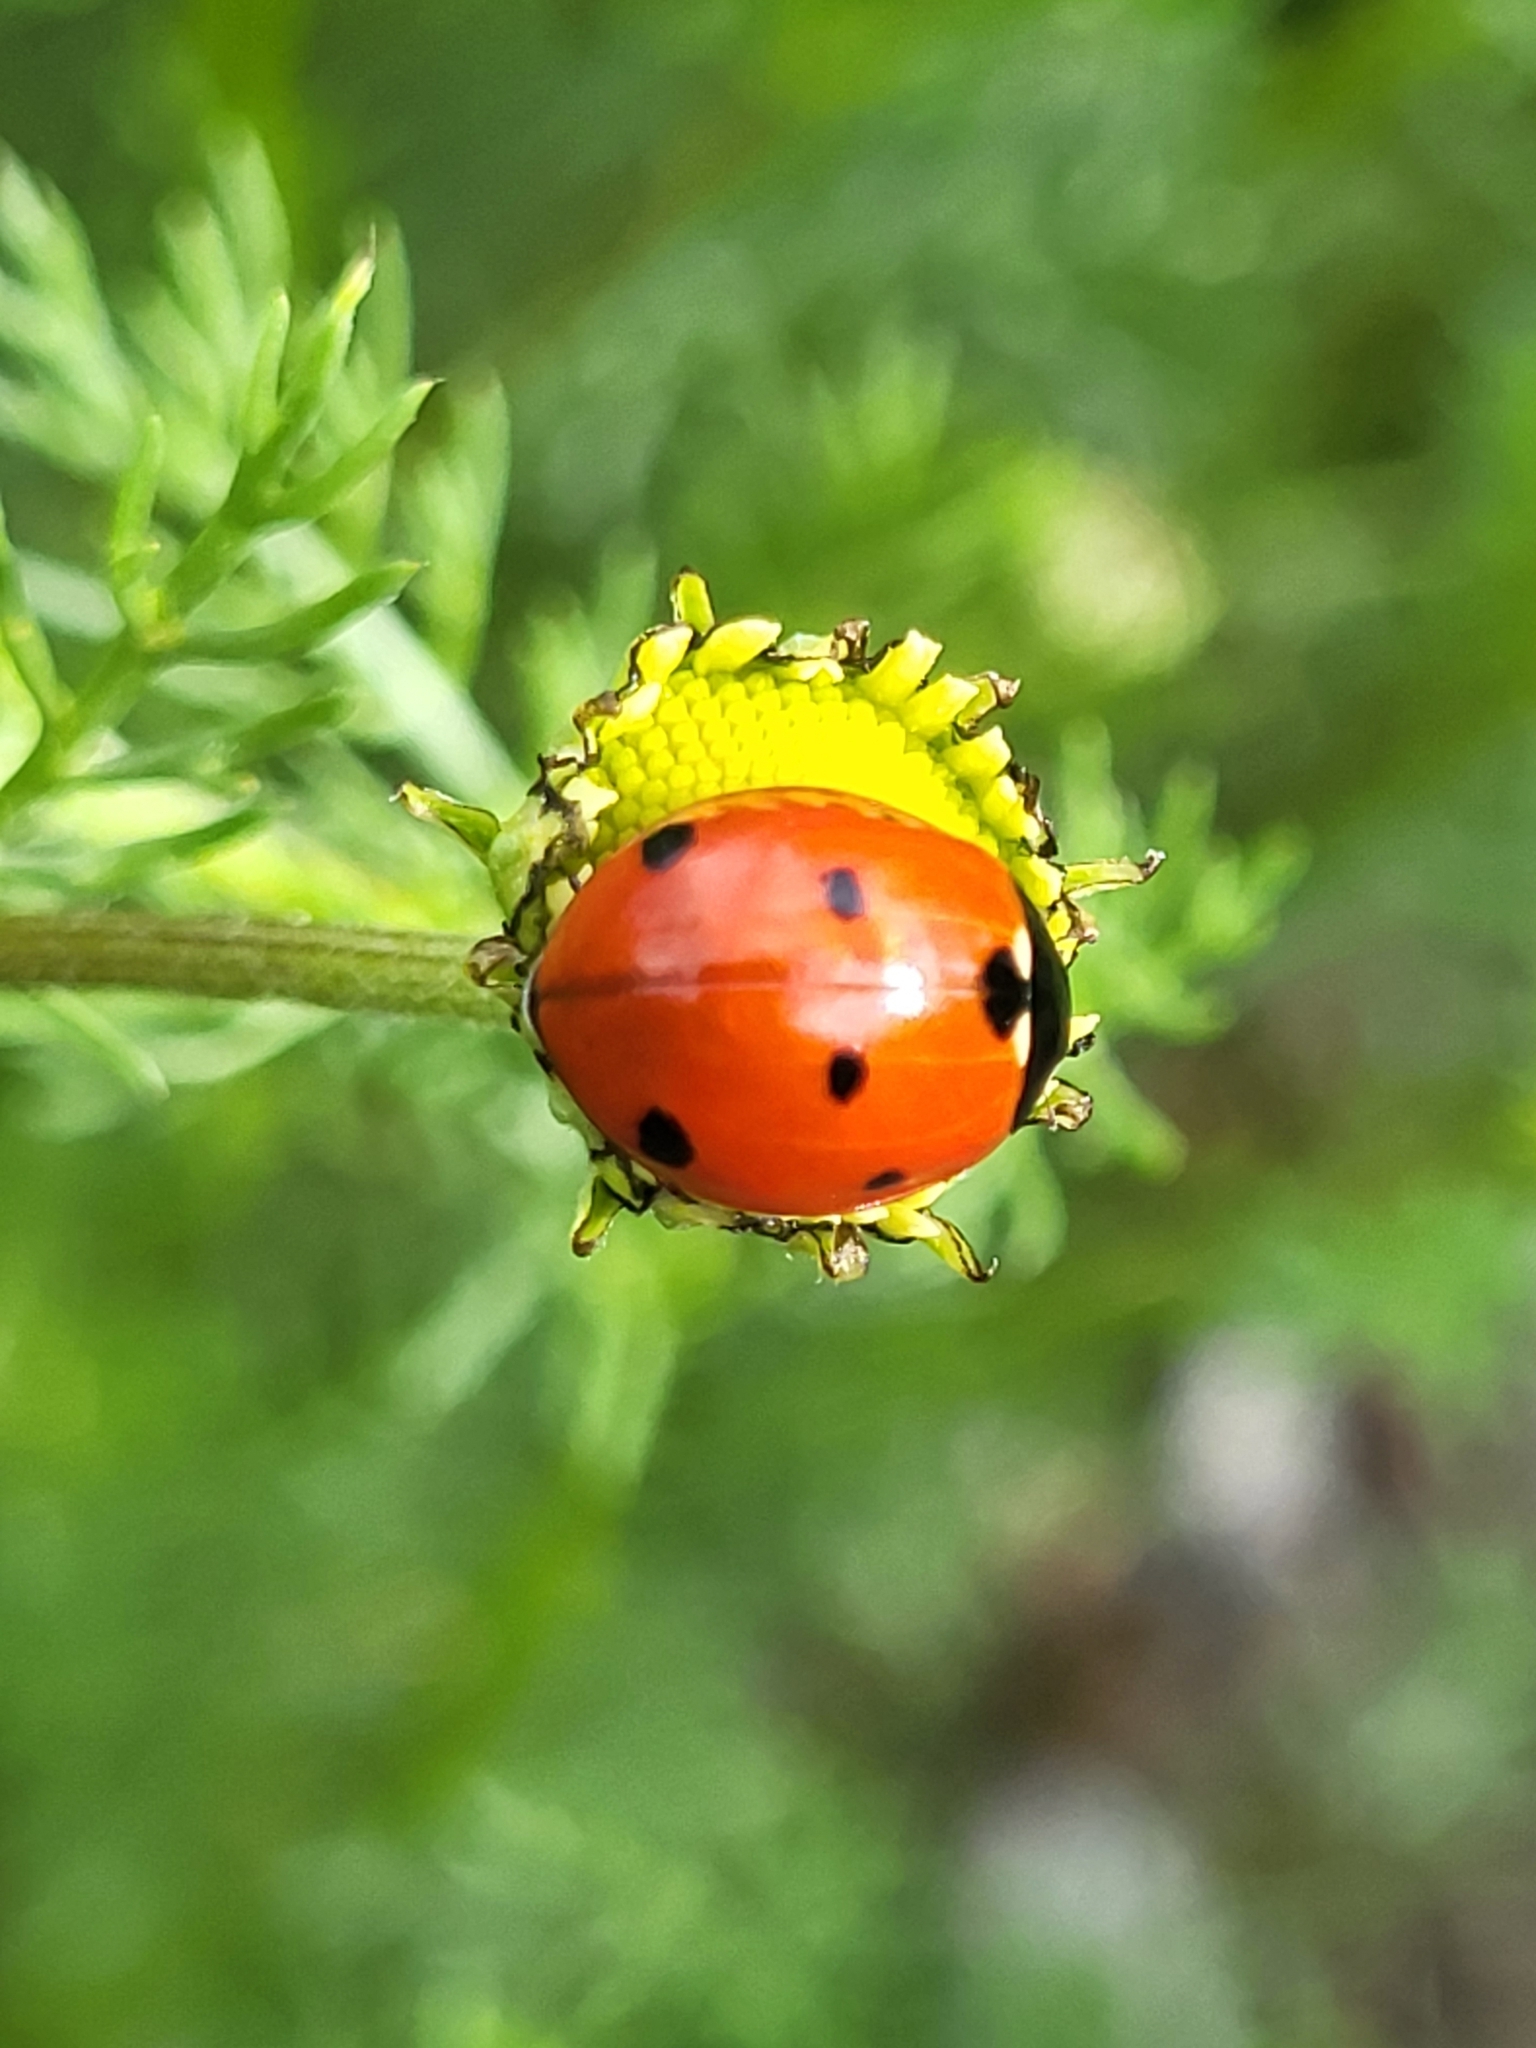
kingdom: Animalia
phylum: Arthropoda
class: Insecta
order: Coleoptera
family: Coccinellidae
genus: Coccinella
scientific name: Coccinella septempunctata
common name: Sevenspotted lady beetle
